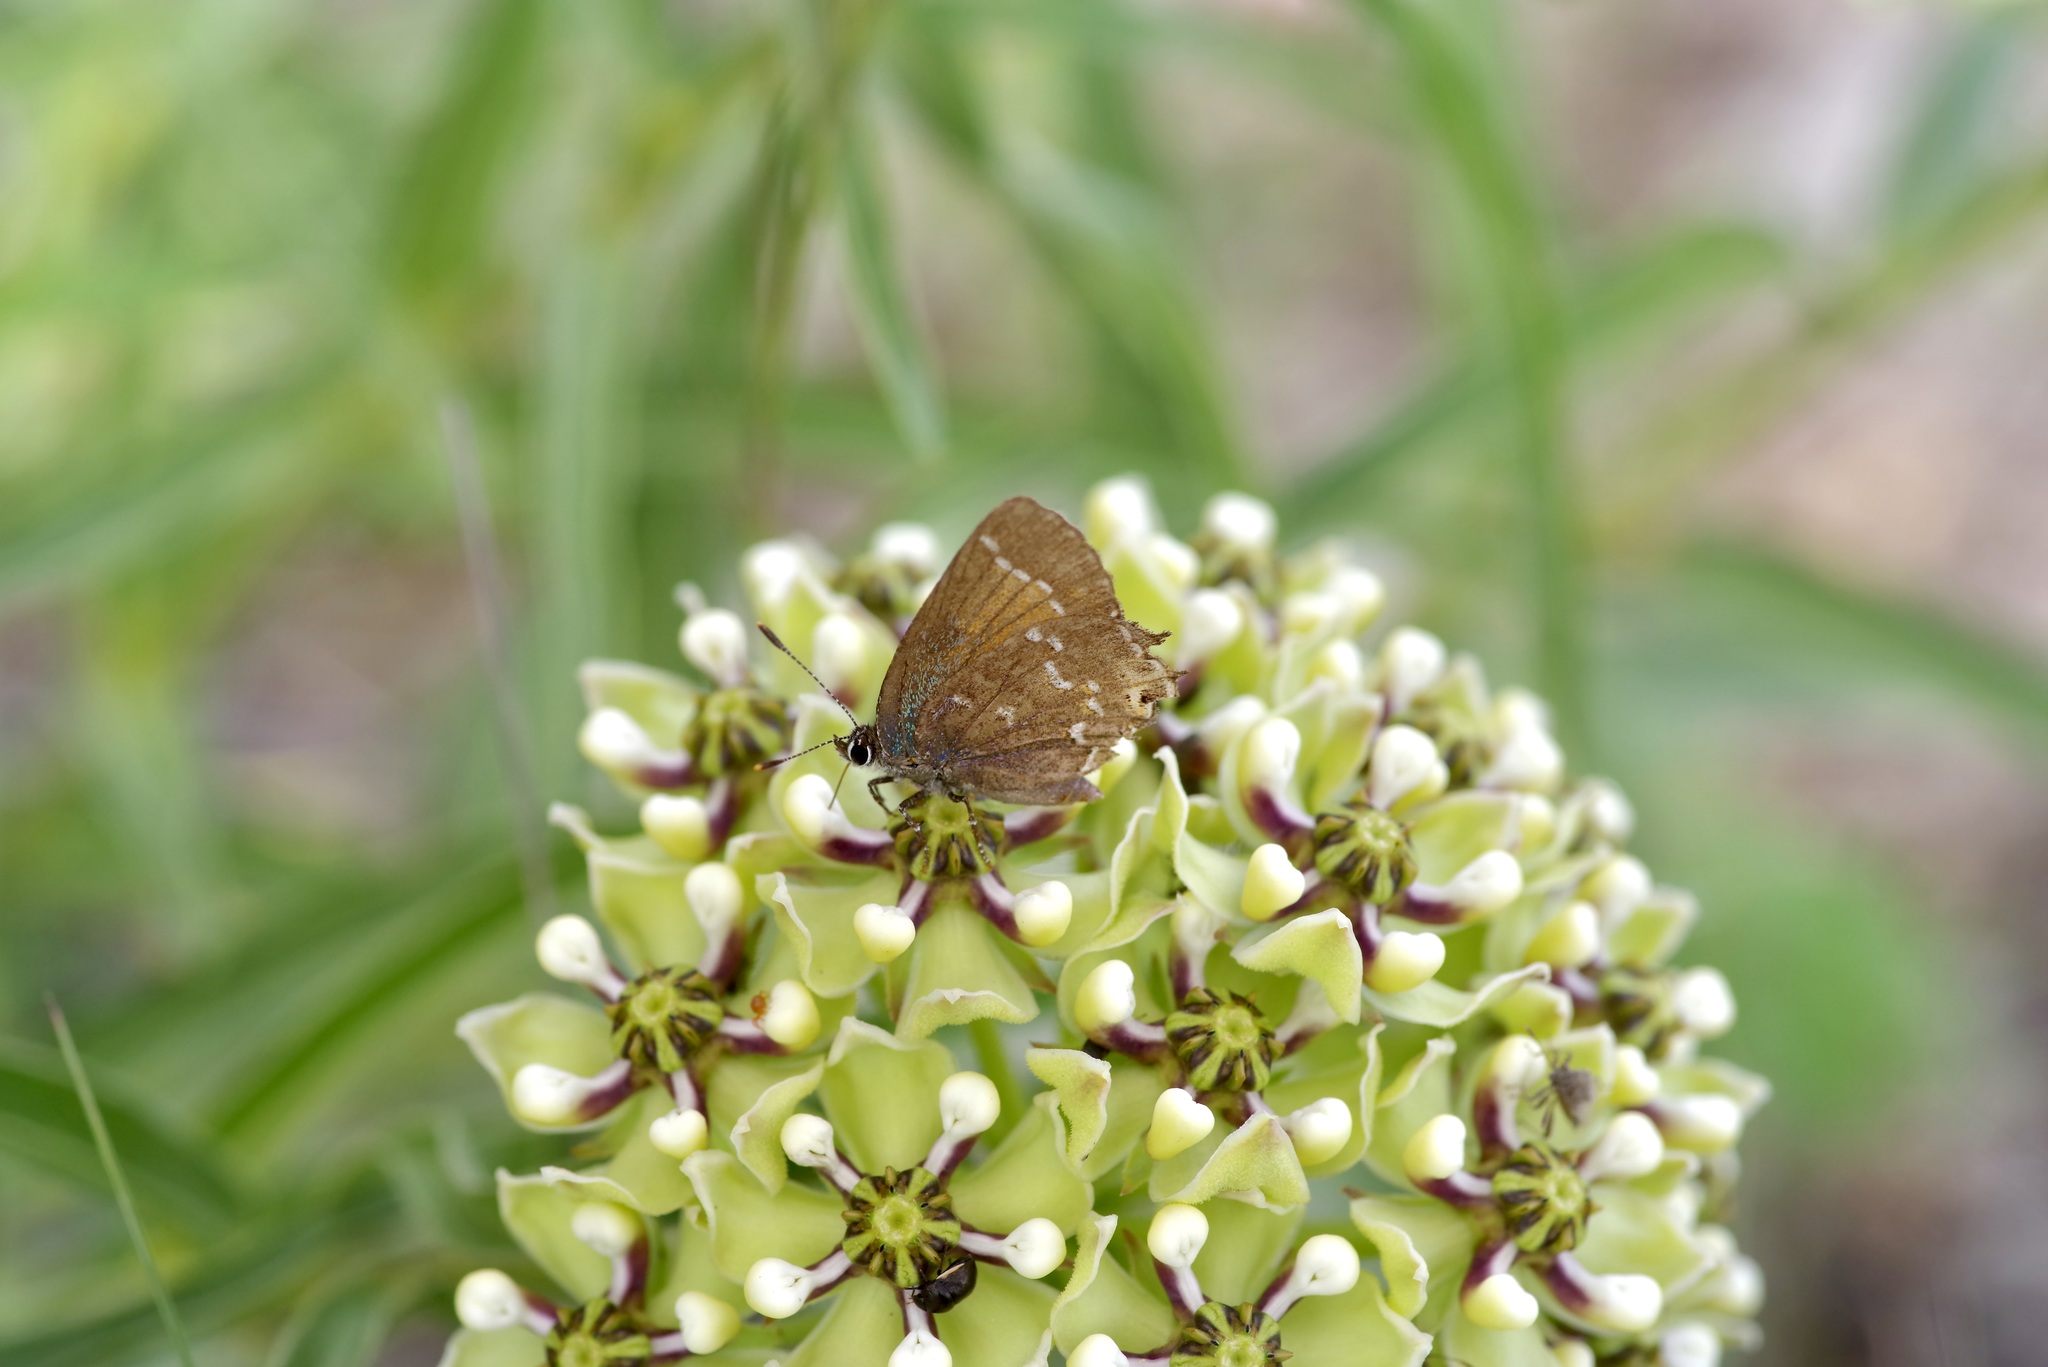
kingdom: Animalia
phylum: Arthropoda
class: Insecta
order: Lepidoptera
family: Lycaenidae
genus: Mitoura
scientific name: Mitoura gryneus
